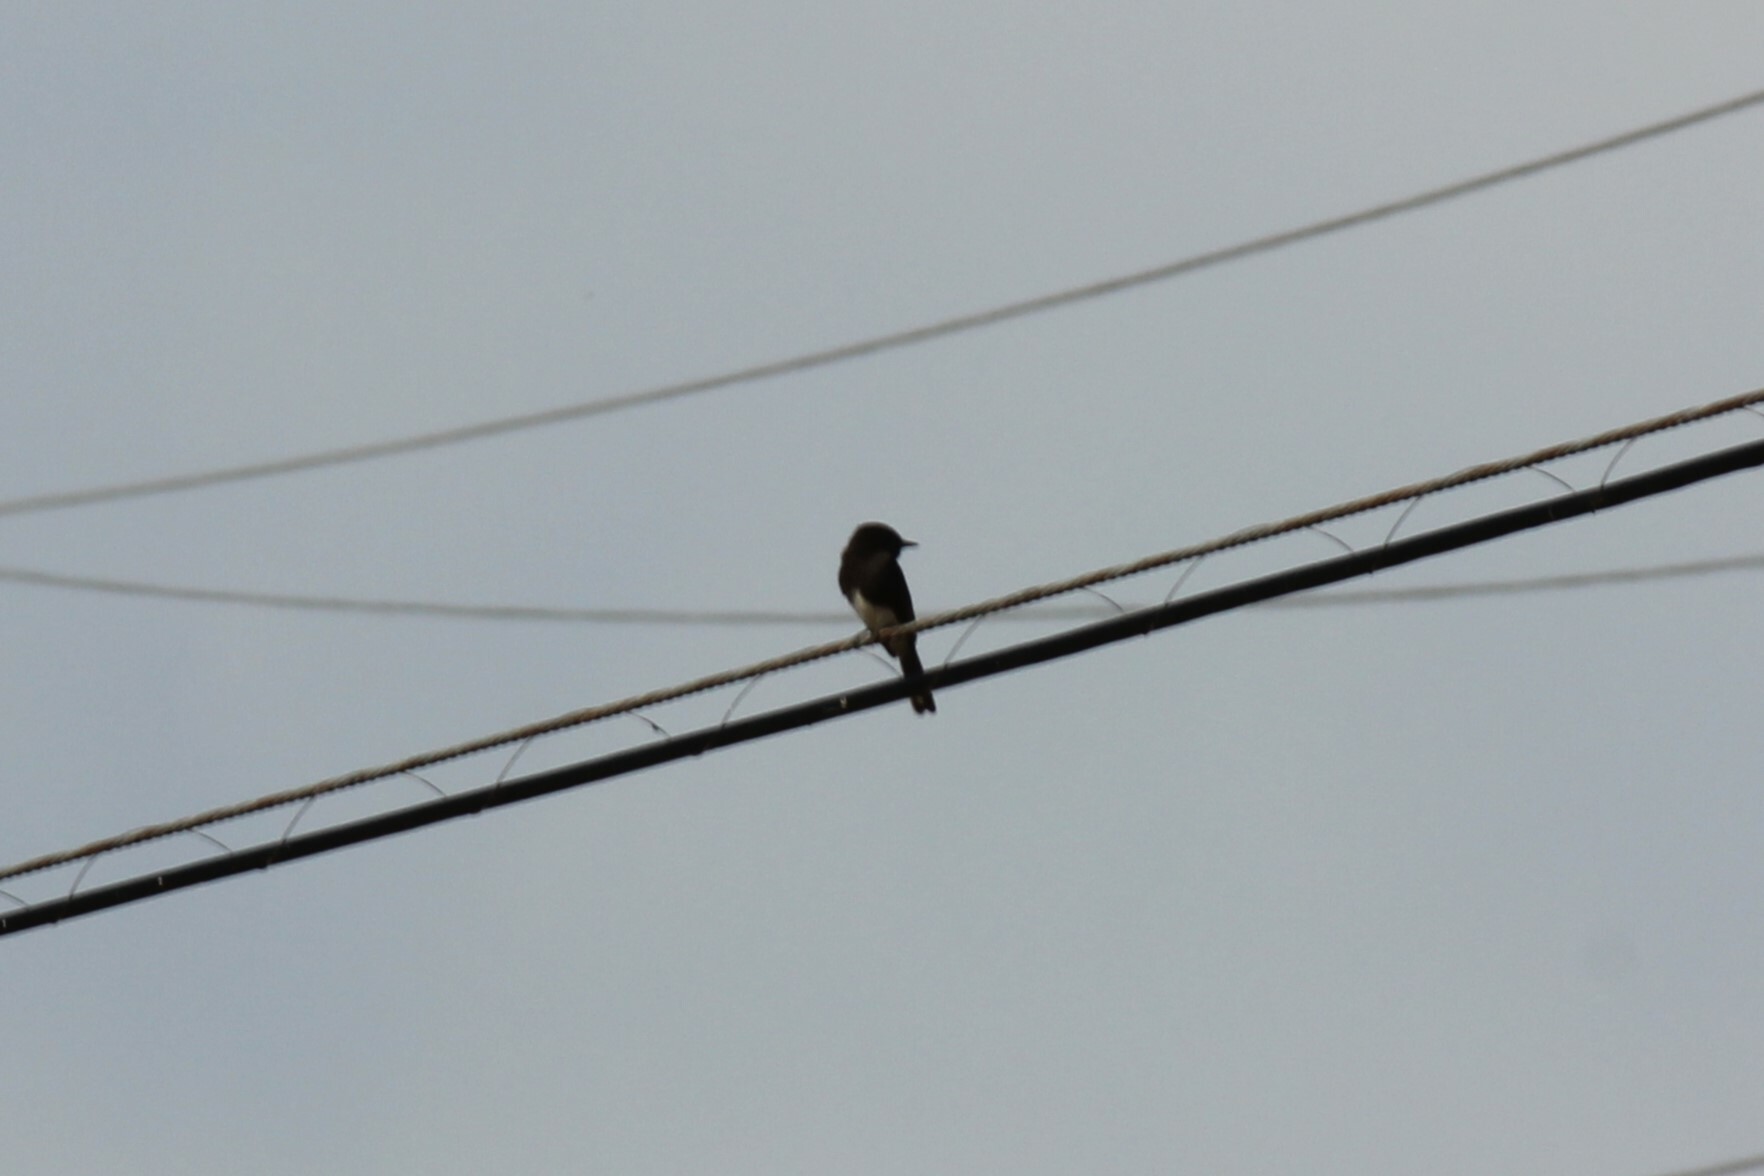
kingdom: Animalia
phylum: Chordata
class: Aves
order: Passeriformes
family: Tyrannidae
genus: Sayornis
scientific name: Sayornis nigricans
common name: Black phoebe
